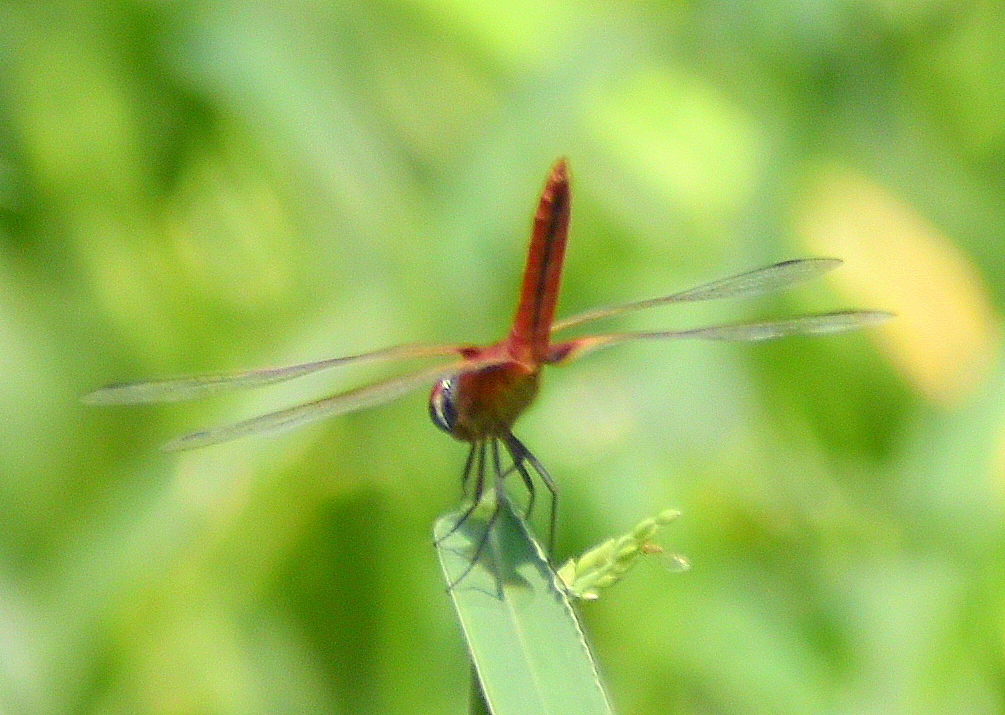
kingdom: Animalia
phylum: Arthropoda
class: Insecta
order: Odonata
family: Libellulidae
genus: Crocothemis
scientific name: Crocothemis servilia
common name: Scarlet skimmer
